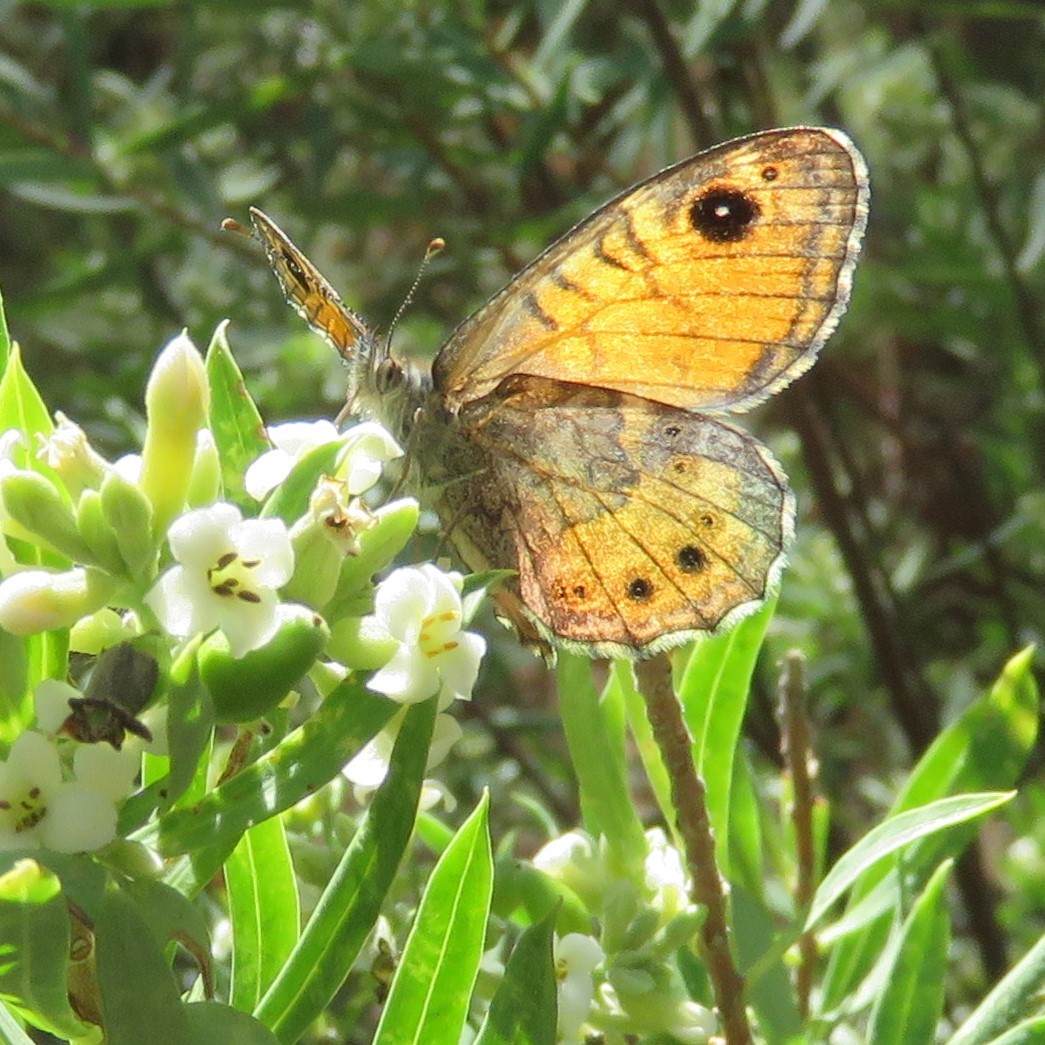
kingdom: Animalia
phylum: Arthropoda
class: Insecta
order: Lepidoptera
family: Nymphalidae
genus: Pararge
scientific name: Pararge Lasiommata paramegaera
